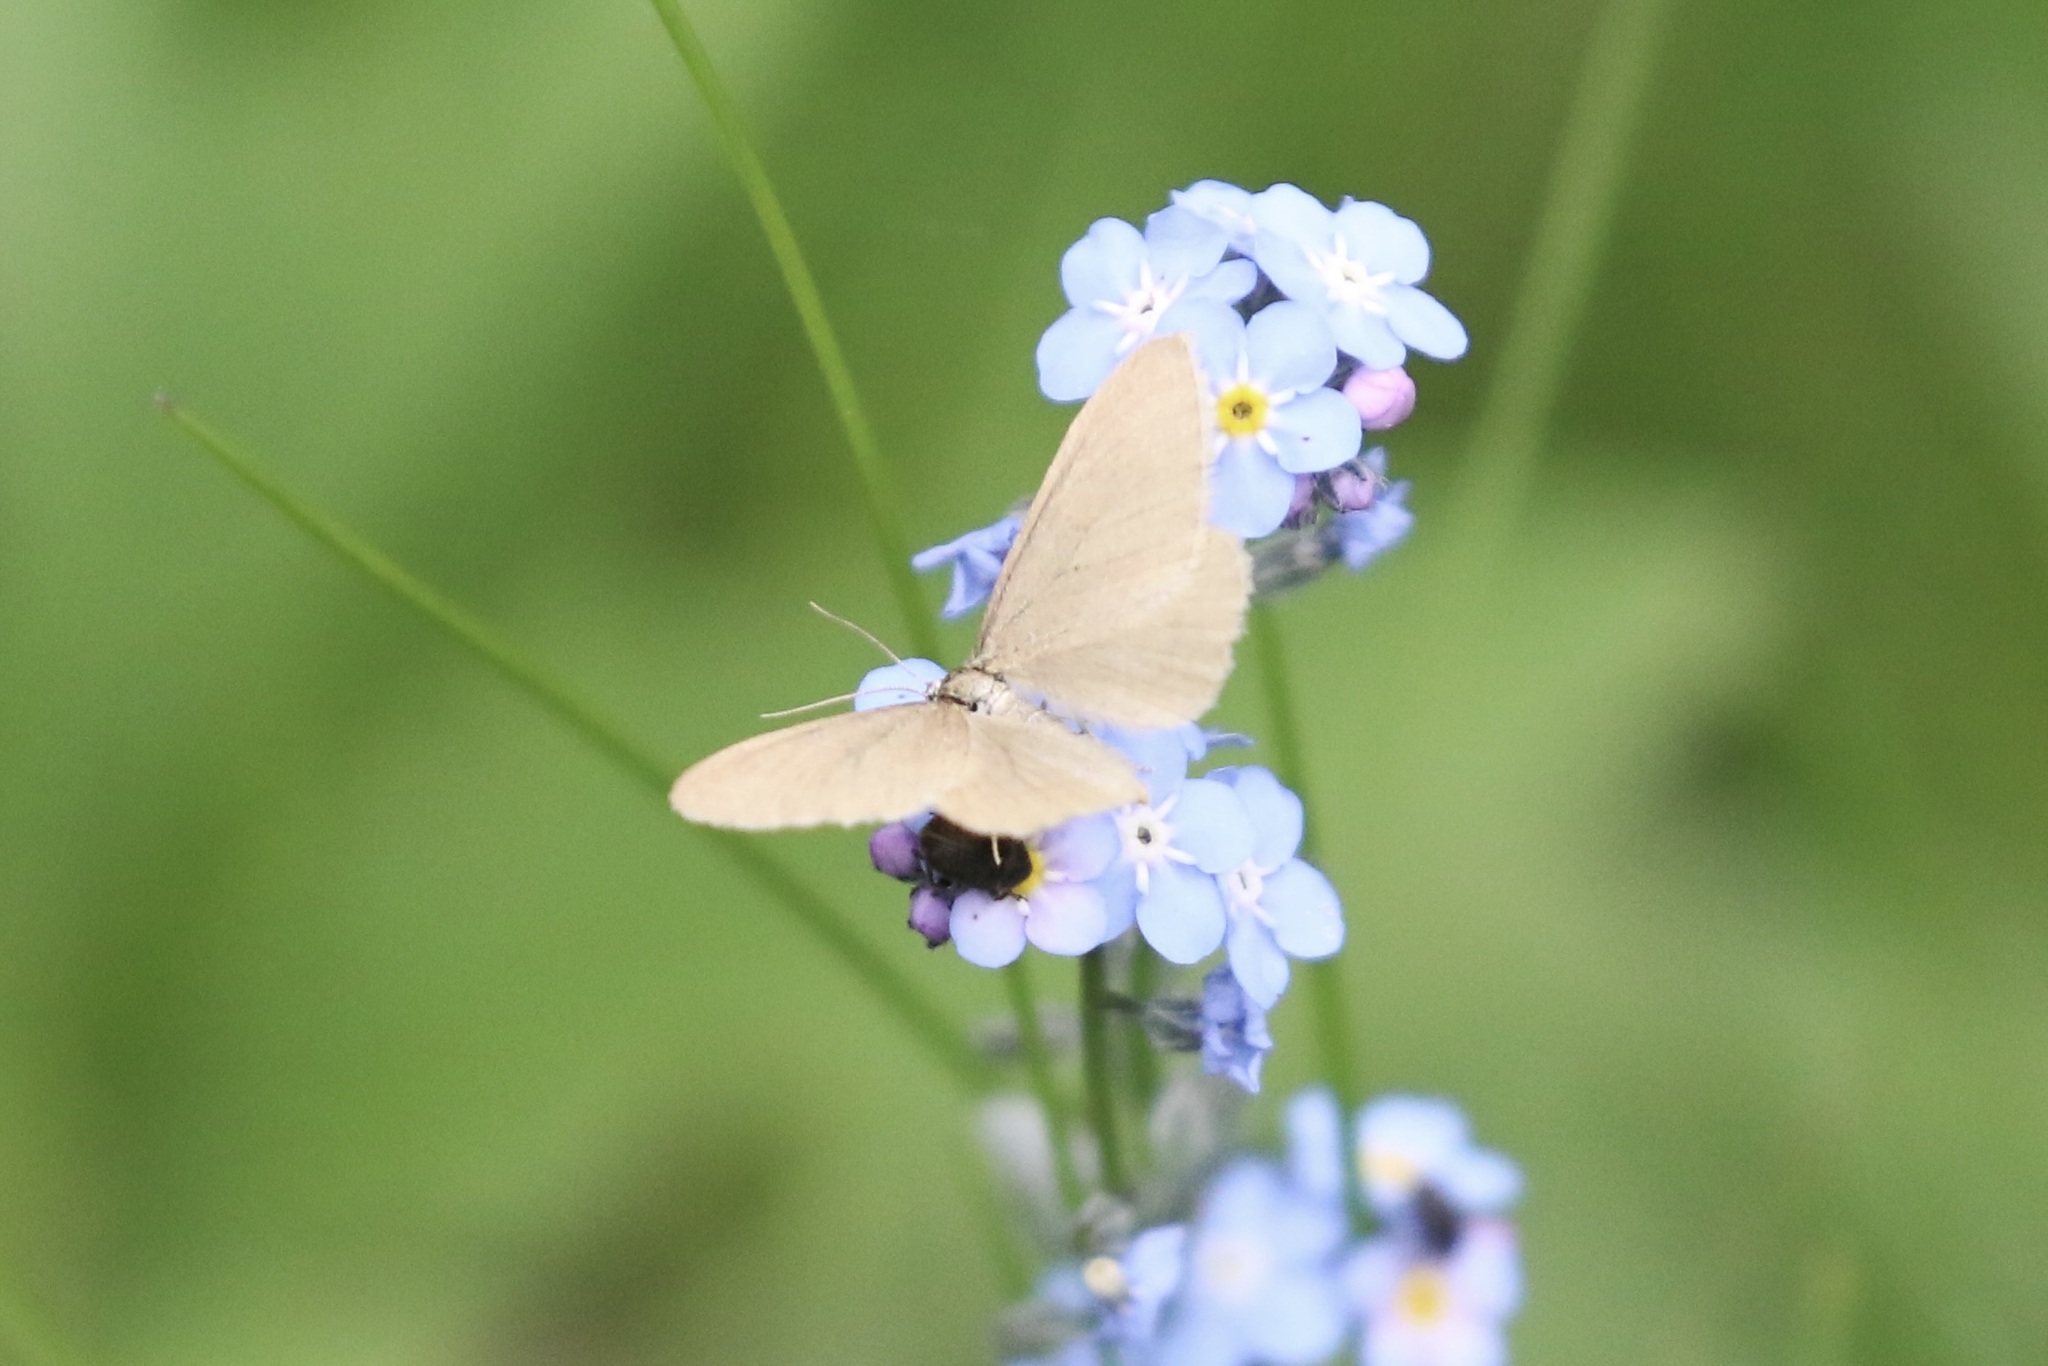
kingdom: Animalia
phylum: Arthropoda
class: Insecta
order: Lepidoptera
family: Geometridae
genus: Minoa
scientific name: Minoa murinata
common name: Drab looper
